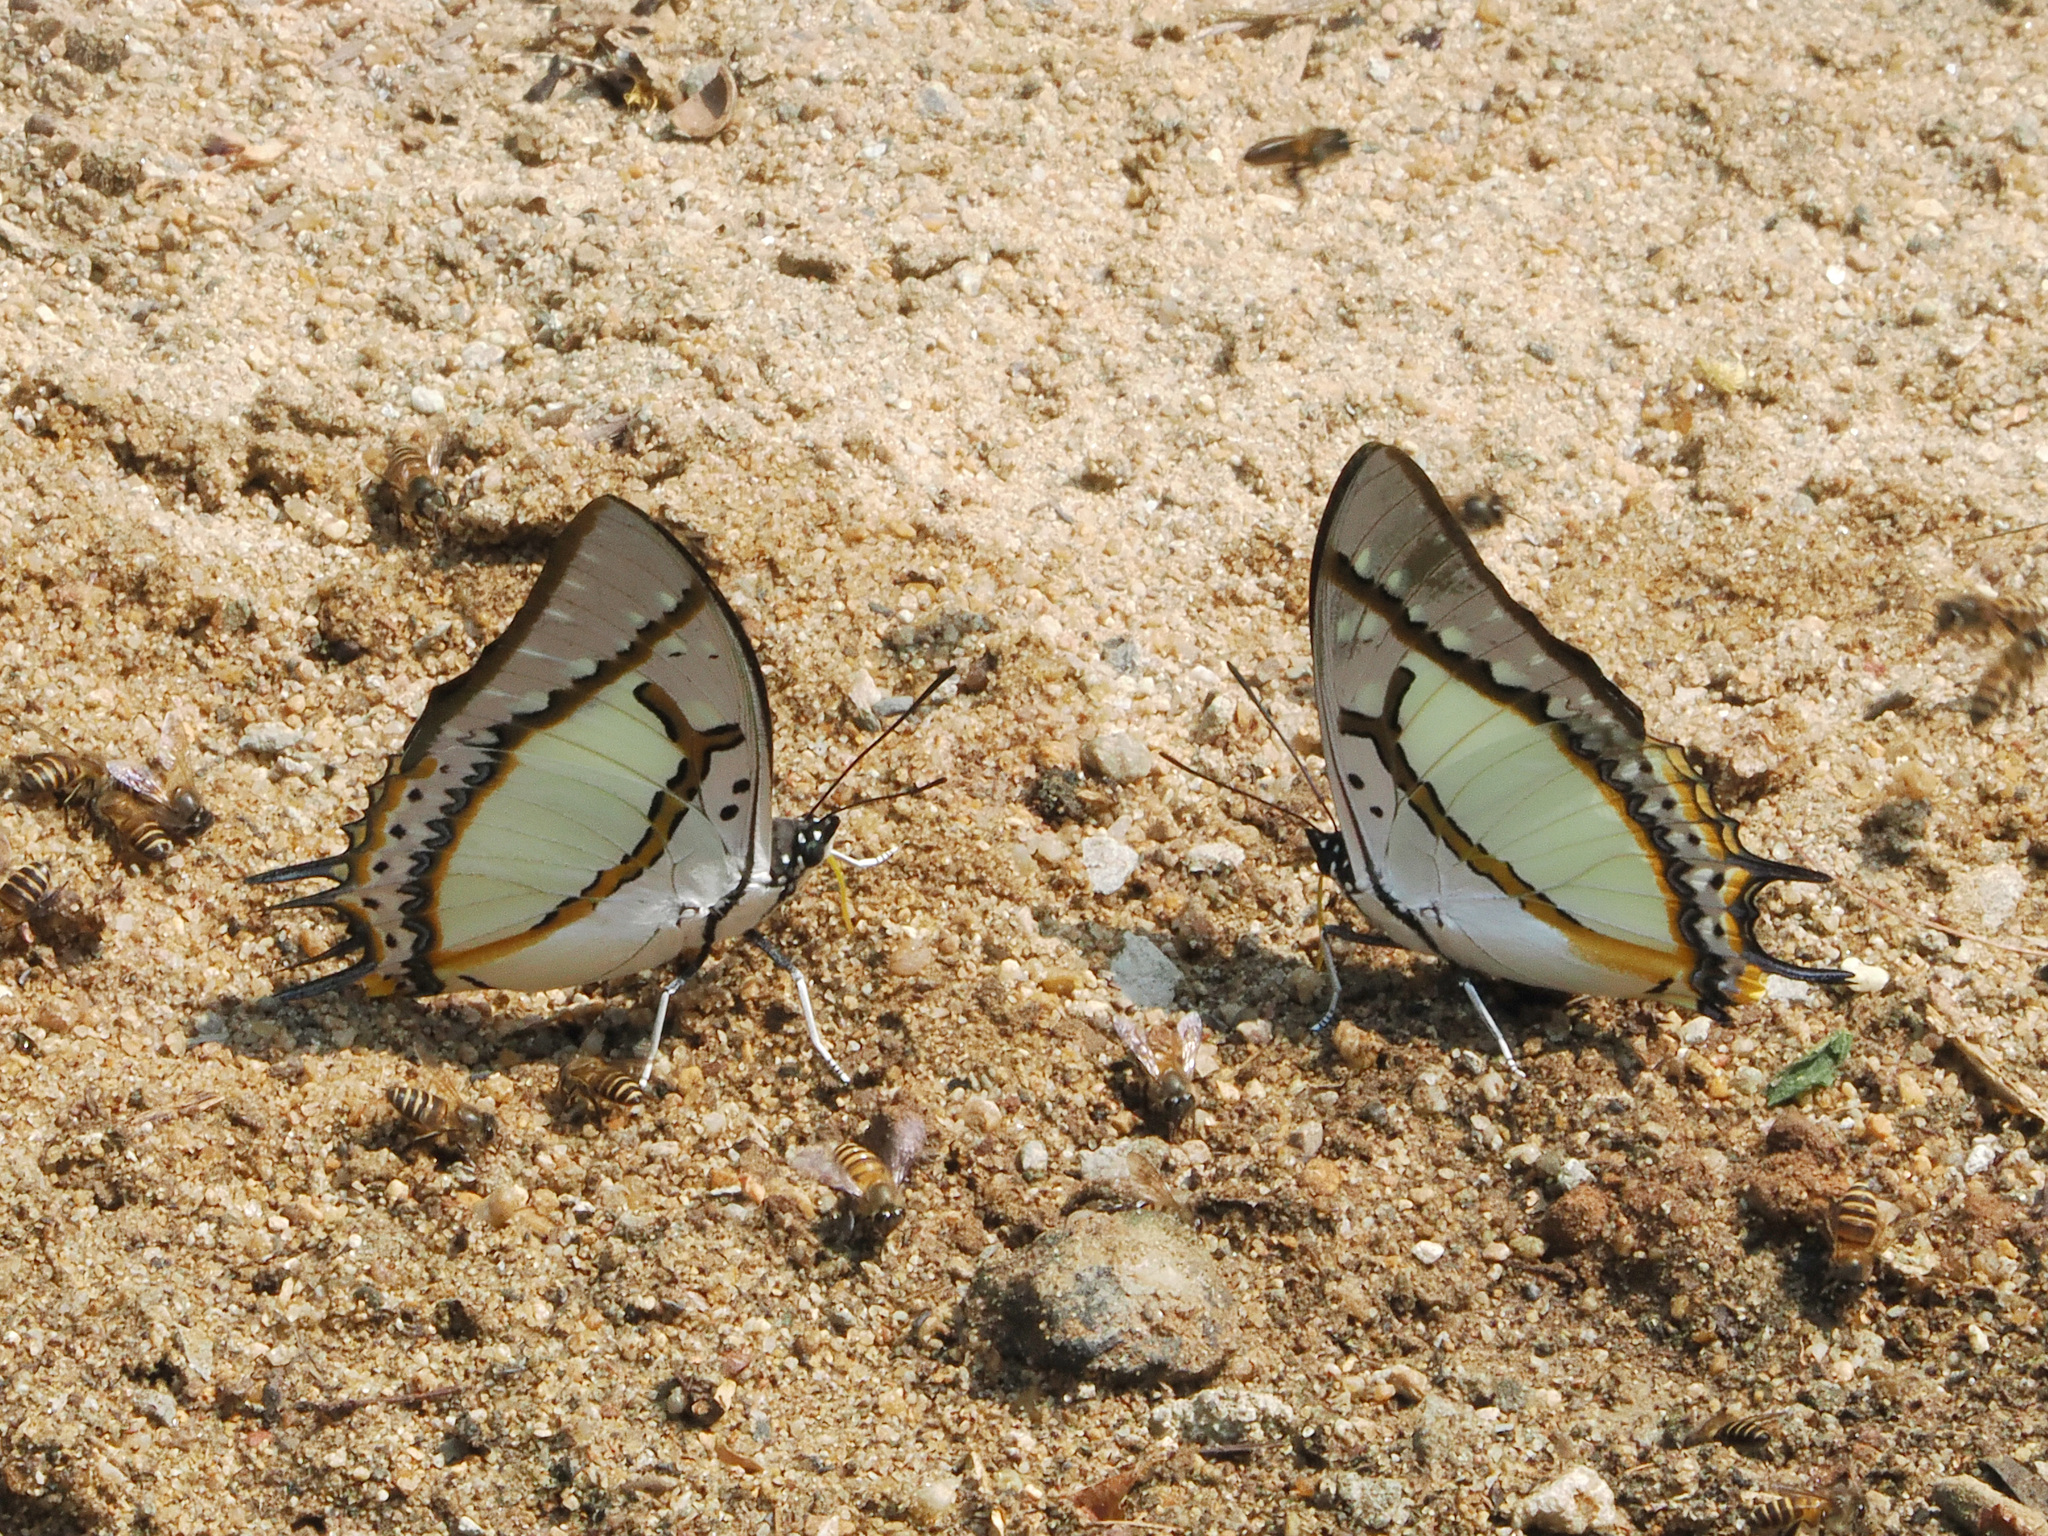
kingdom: Animalia
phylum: Arthropoda
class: Insecta
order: Lepidoptera
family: Nymphalidae
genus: Polyura
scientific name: Polyura eudamippus
